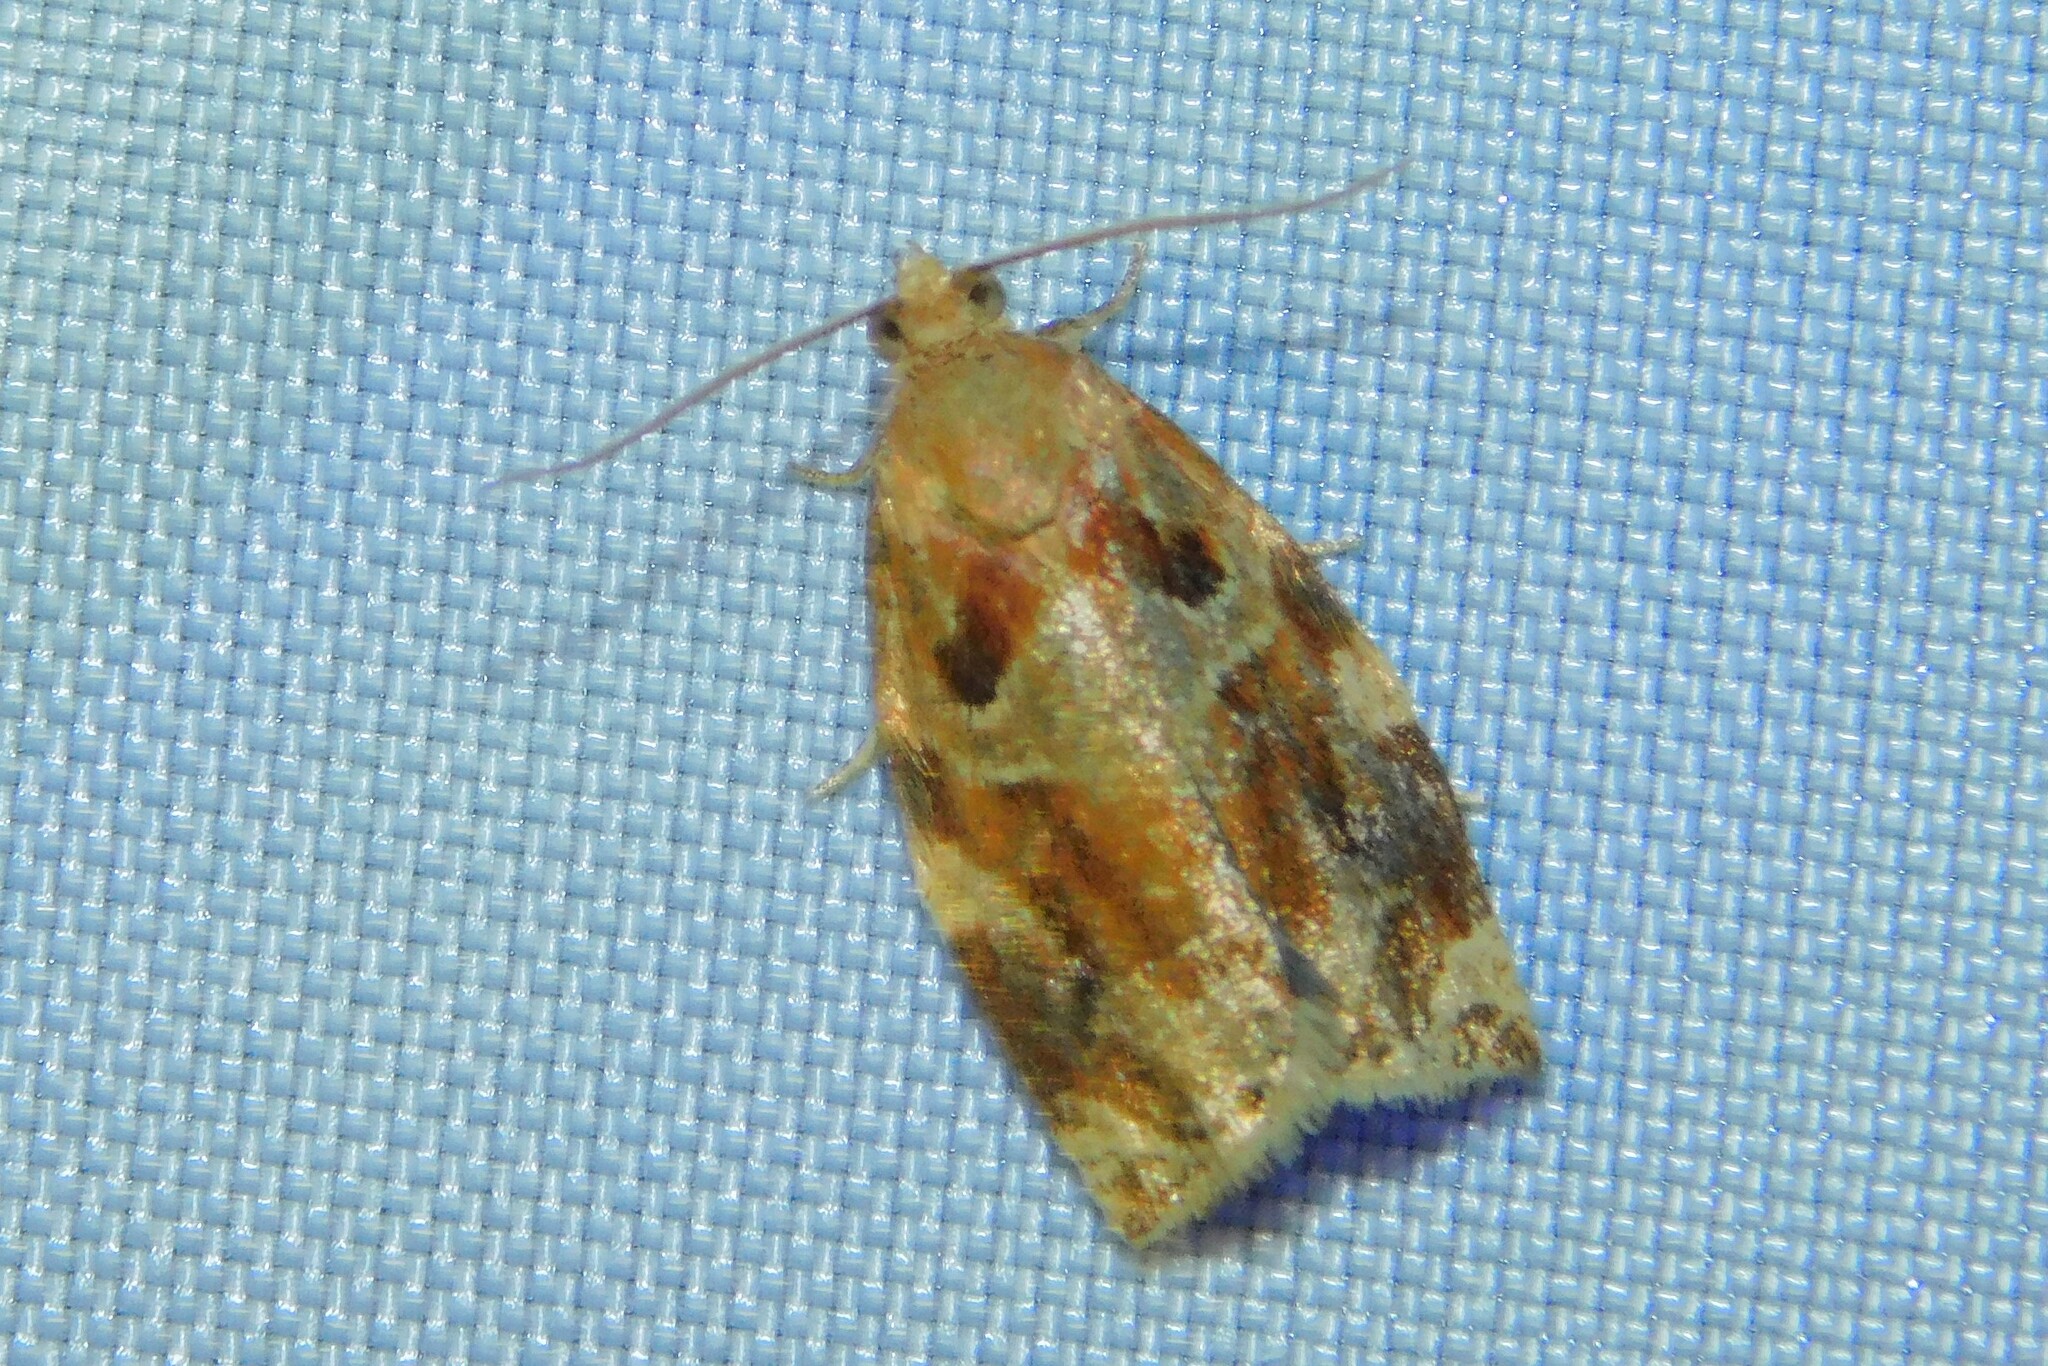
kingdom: Animalia
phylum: Arthropoda
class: Insecta
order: Lepidoptera
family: Tortricidae
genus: Archips
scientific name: Archips xylosteana
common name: Variegated golden tortrix
